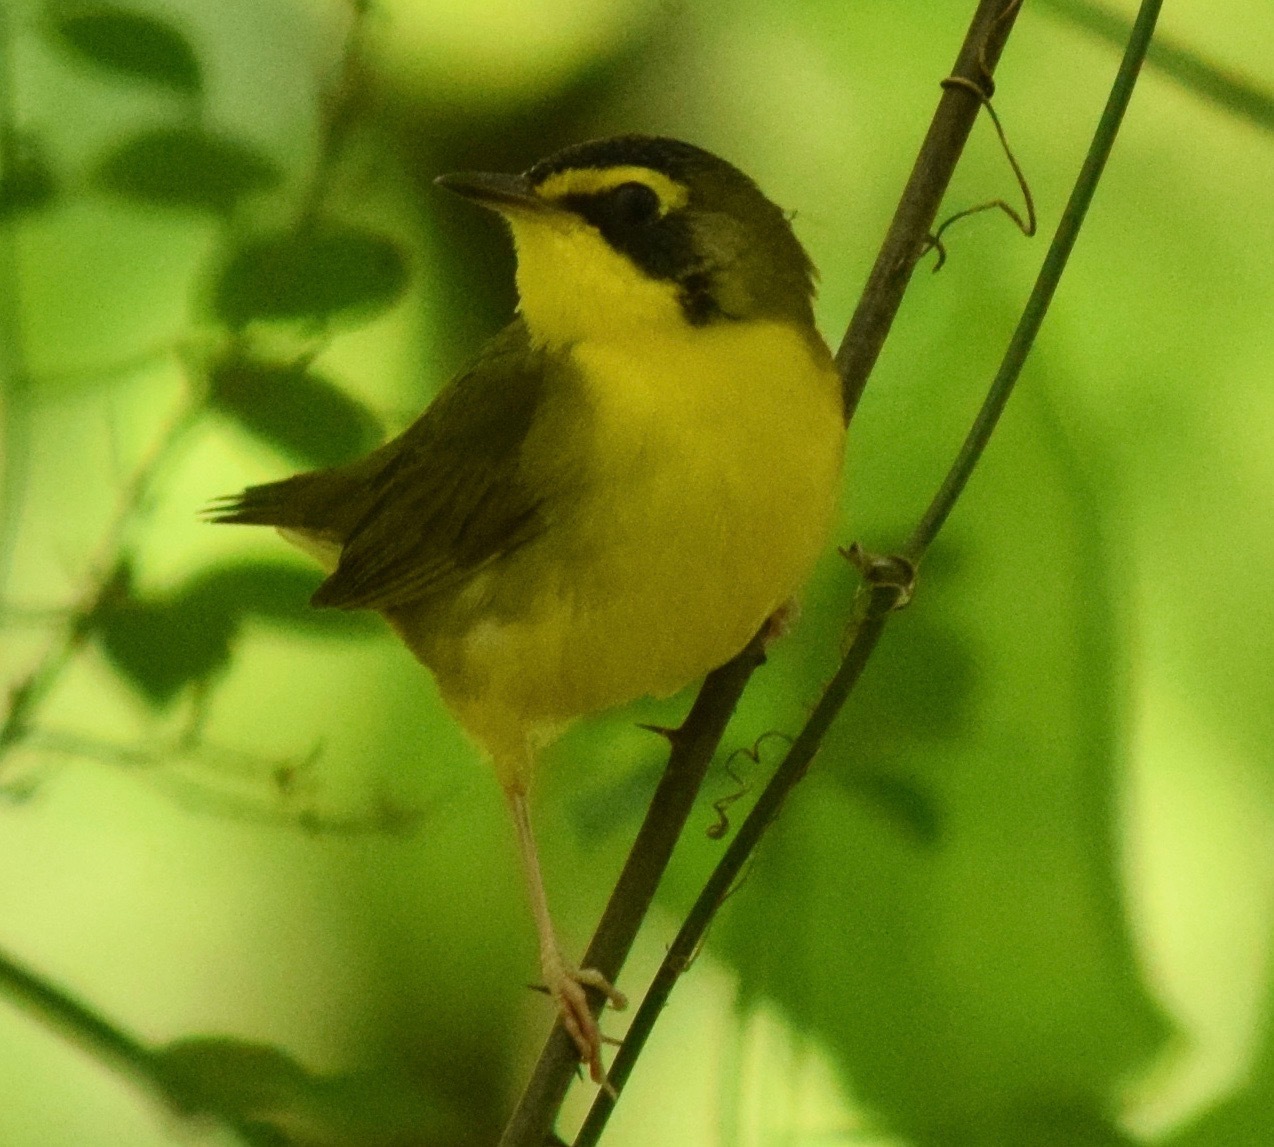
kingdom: Animalia
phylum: Chordata
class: Aves
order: Passeriformes
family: Parulidae
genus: Geothlypis
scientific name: Geothlypis formosa
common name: Kentucky warbler
